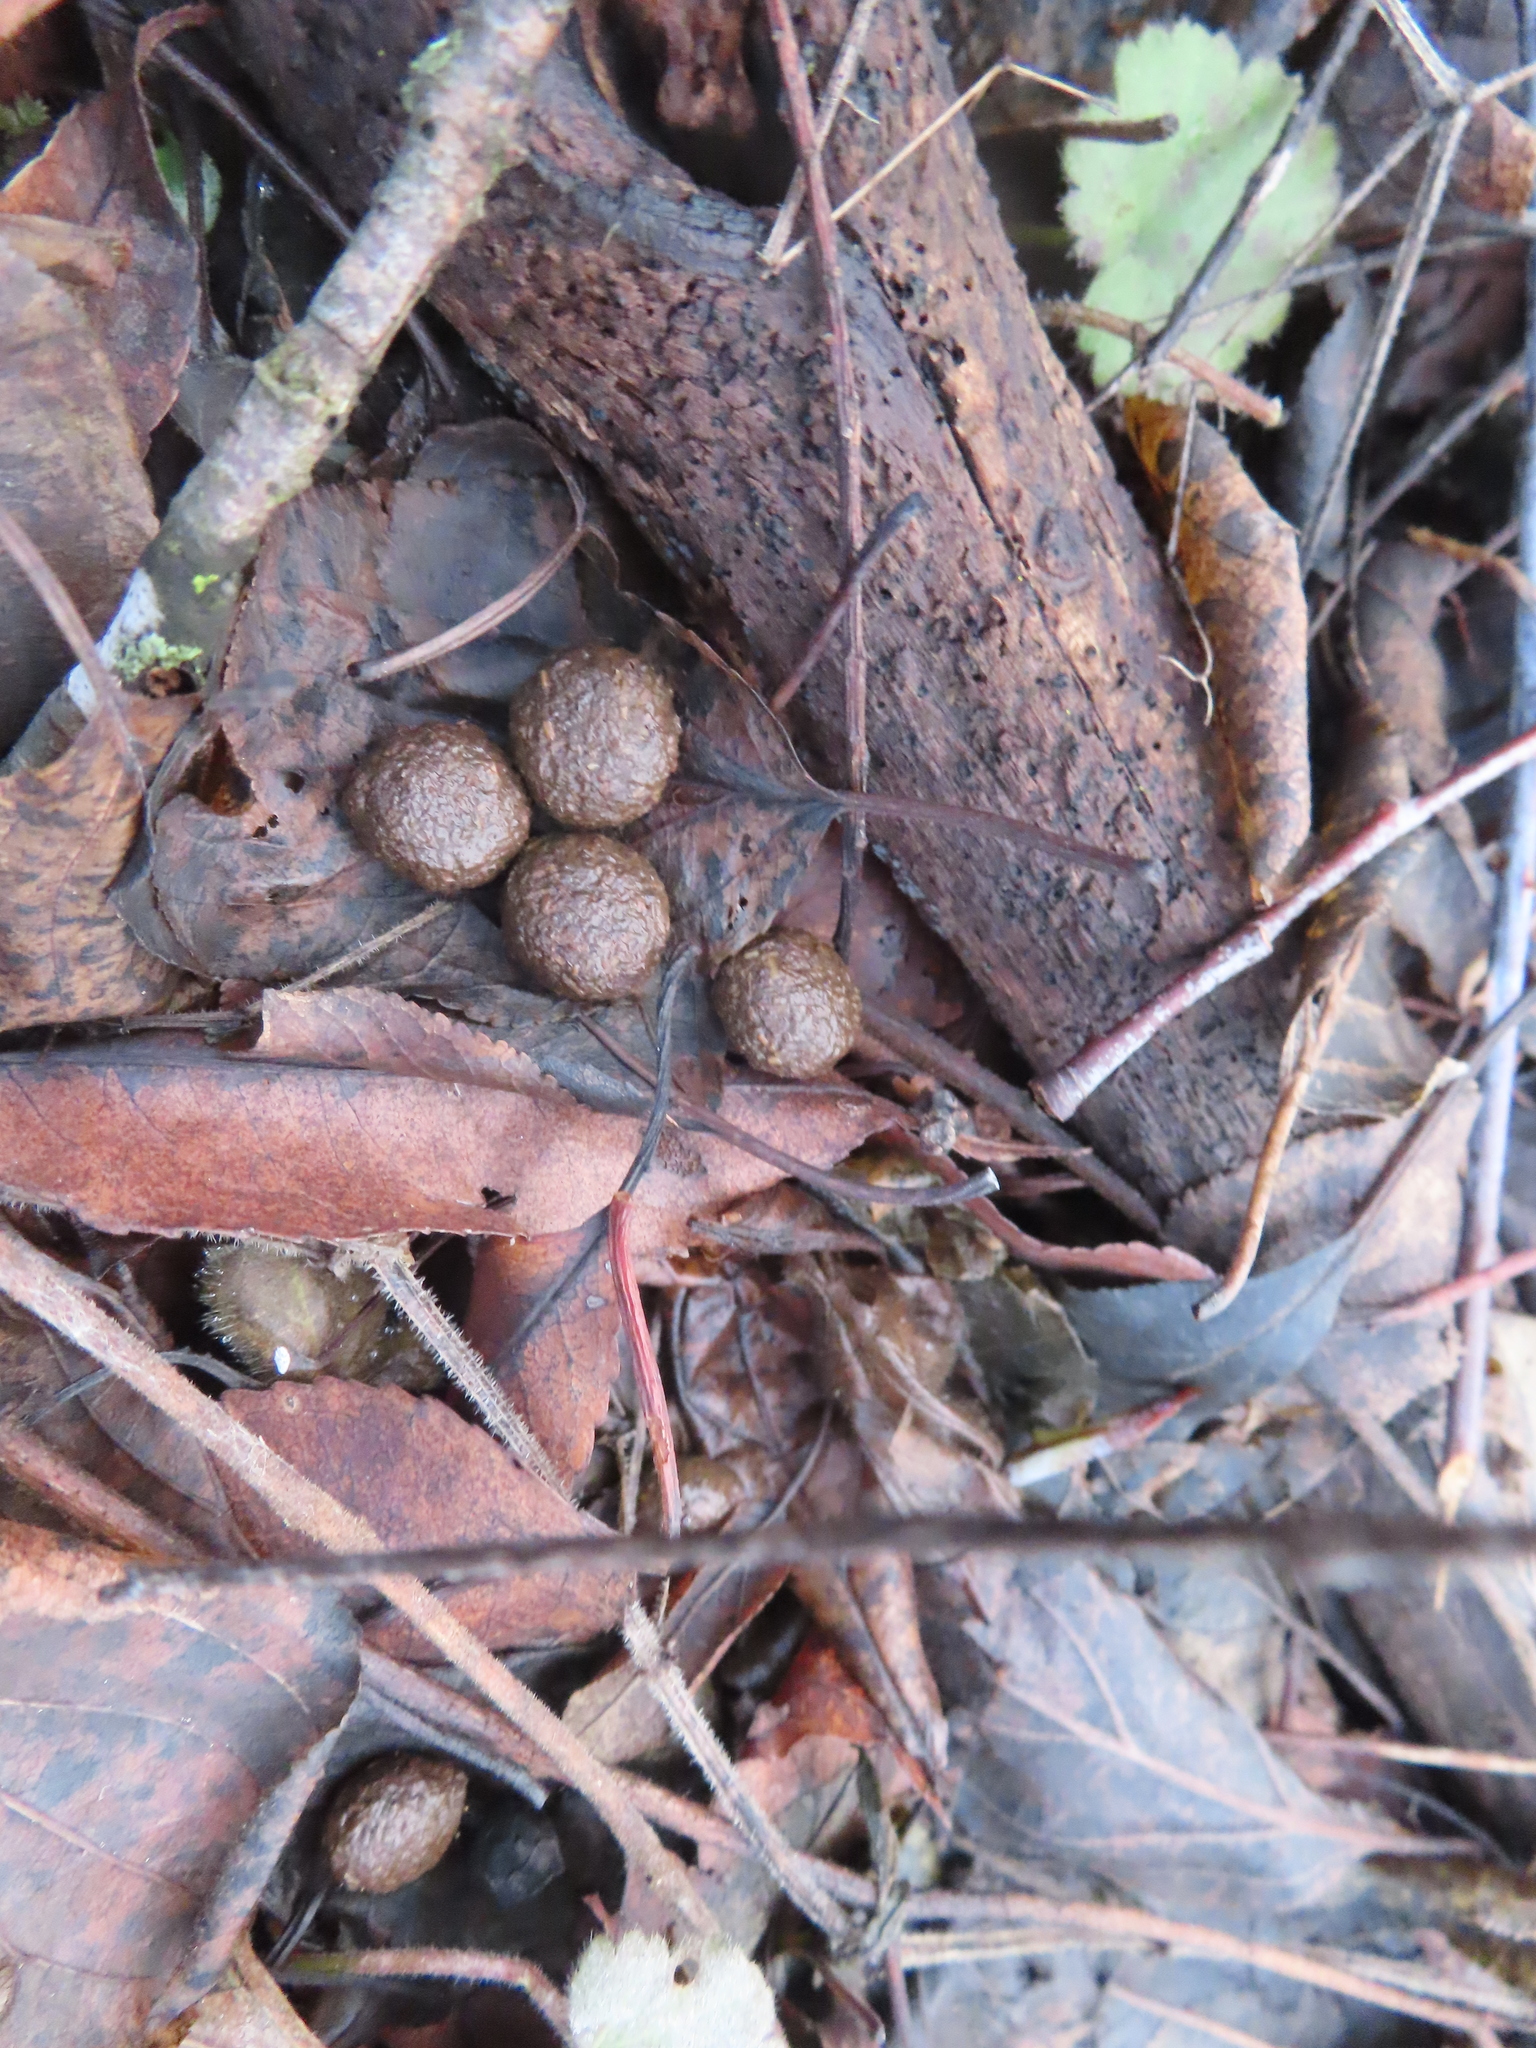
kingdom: Animalia
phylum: Chordata
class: Mammalia
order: Lagomorpha
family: Leporidae
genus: Sylvilagus
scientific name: Sylvilagus floridanus
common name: Eastern cottontail
